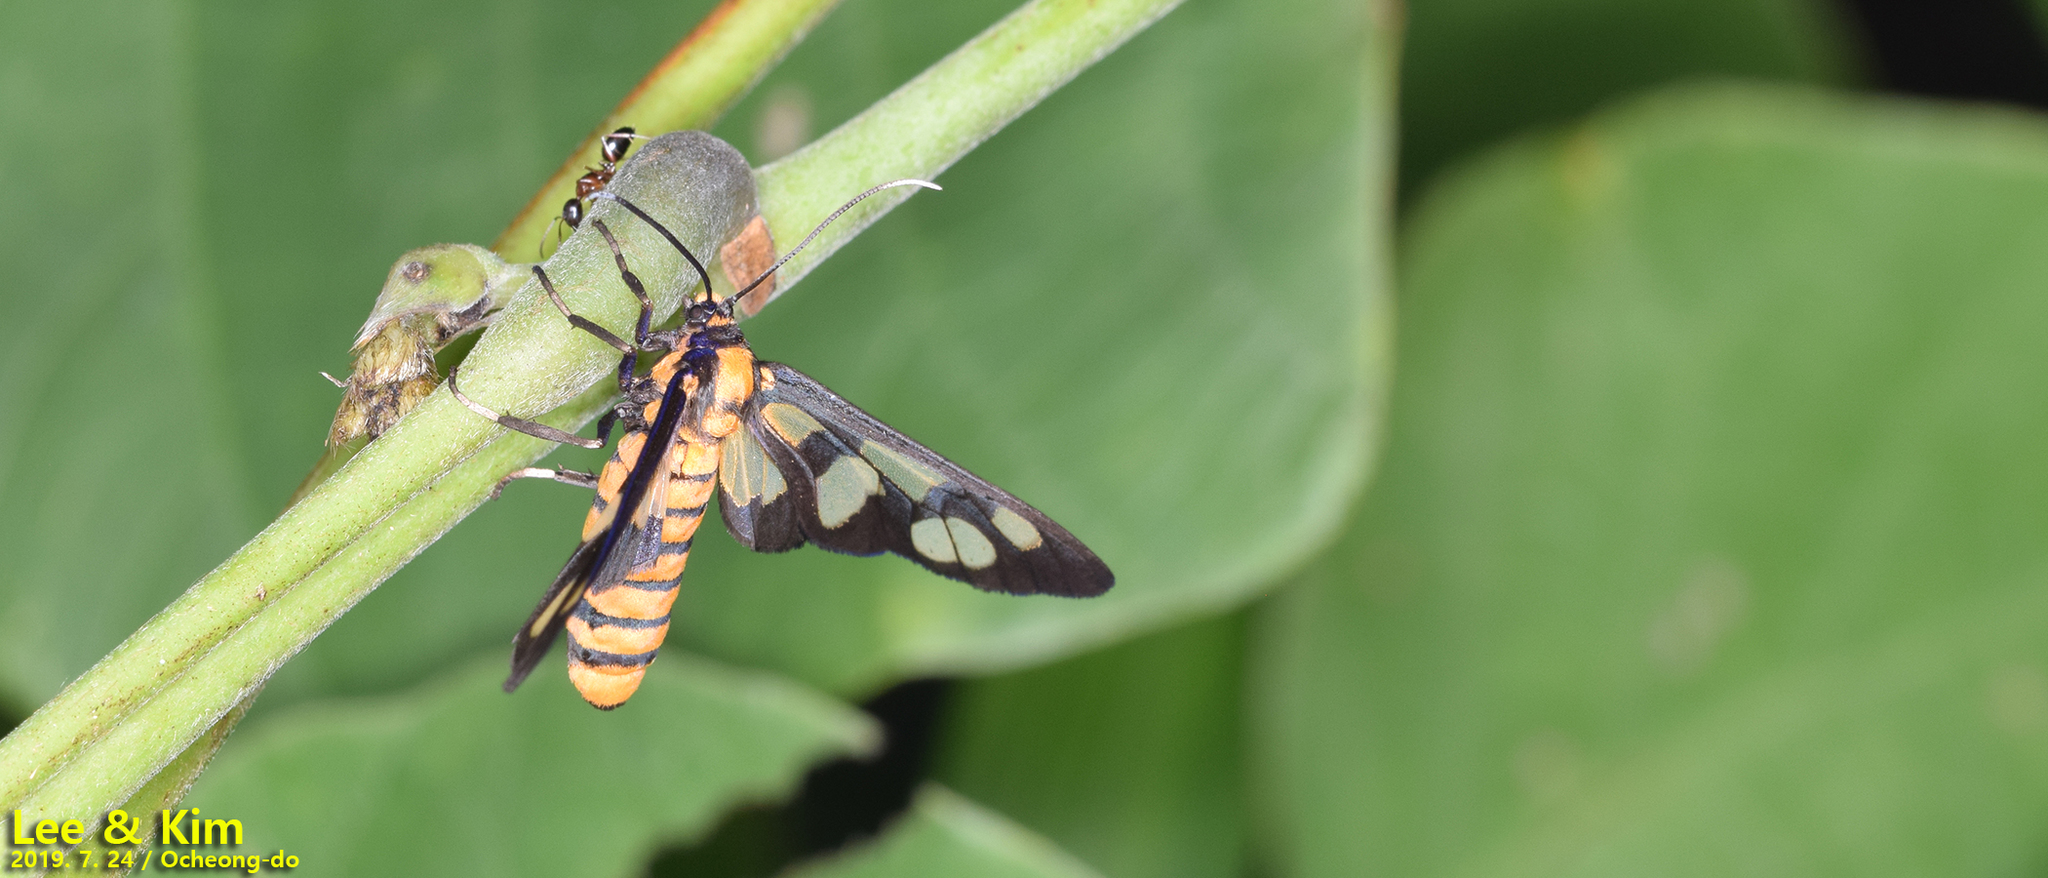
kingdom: Animalia
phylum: Arthropoda
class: Insecta
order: Lepidoptera
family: Erebidae
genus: Amata
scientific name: Amata germana
